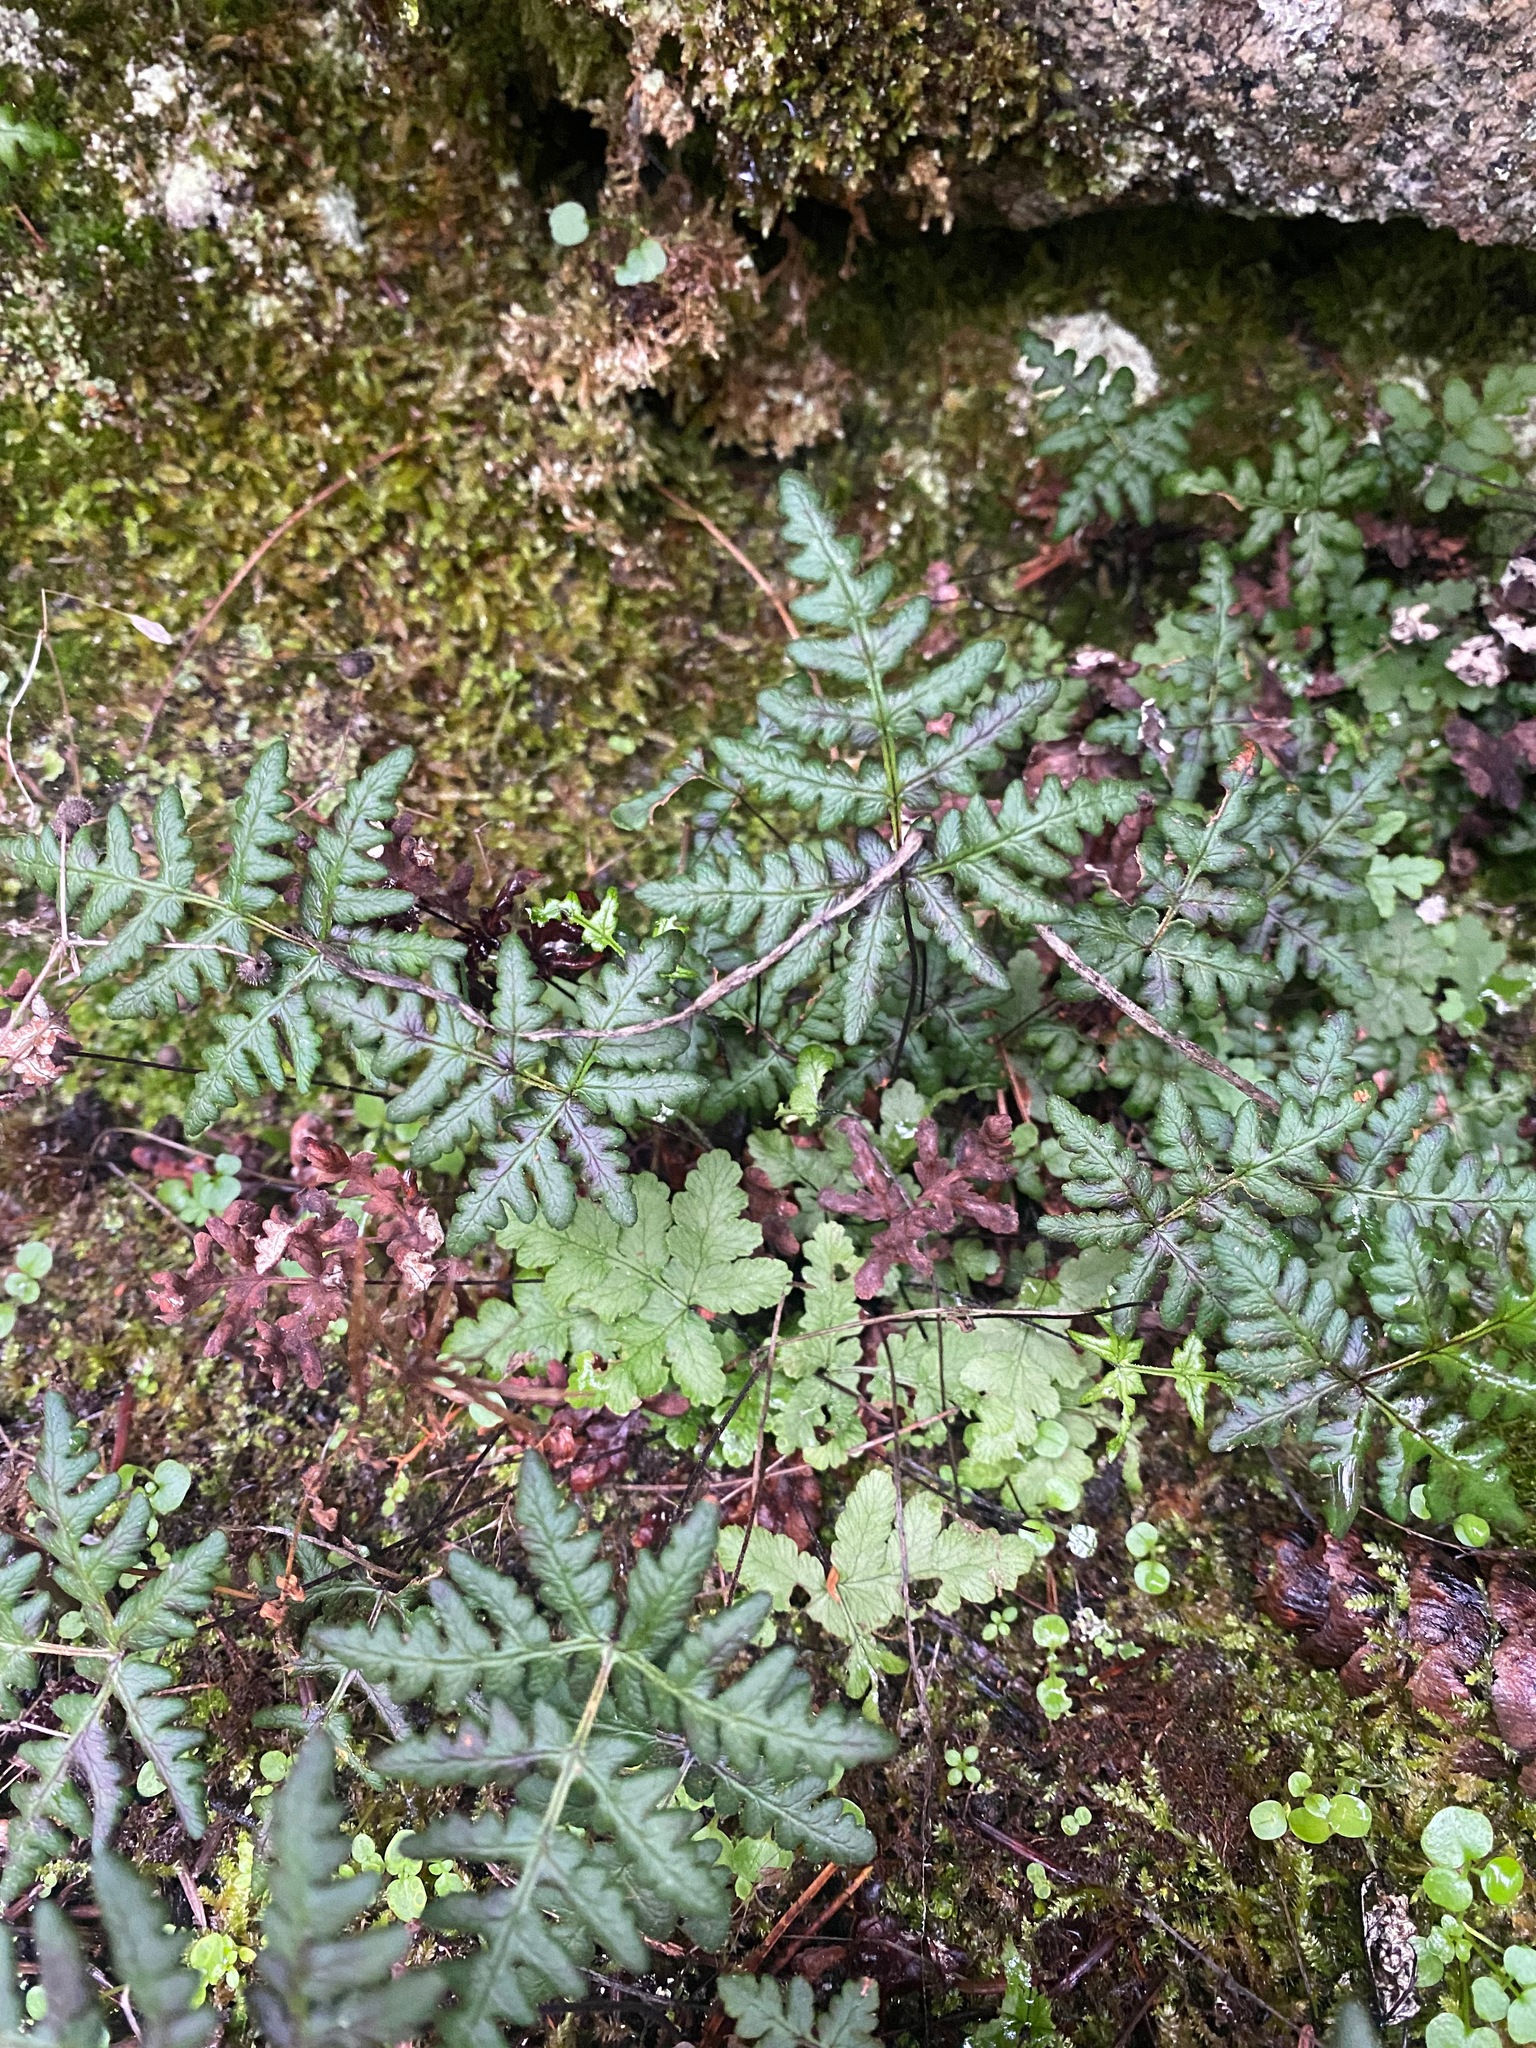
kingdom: Plantae
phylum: Tracheophyta
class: Polypodiopsida
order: Polypodiales
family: Pteridaceae
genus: Pentagramma
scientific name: Pentagramma triangularis
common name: Gold fern
